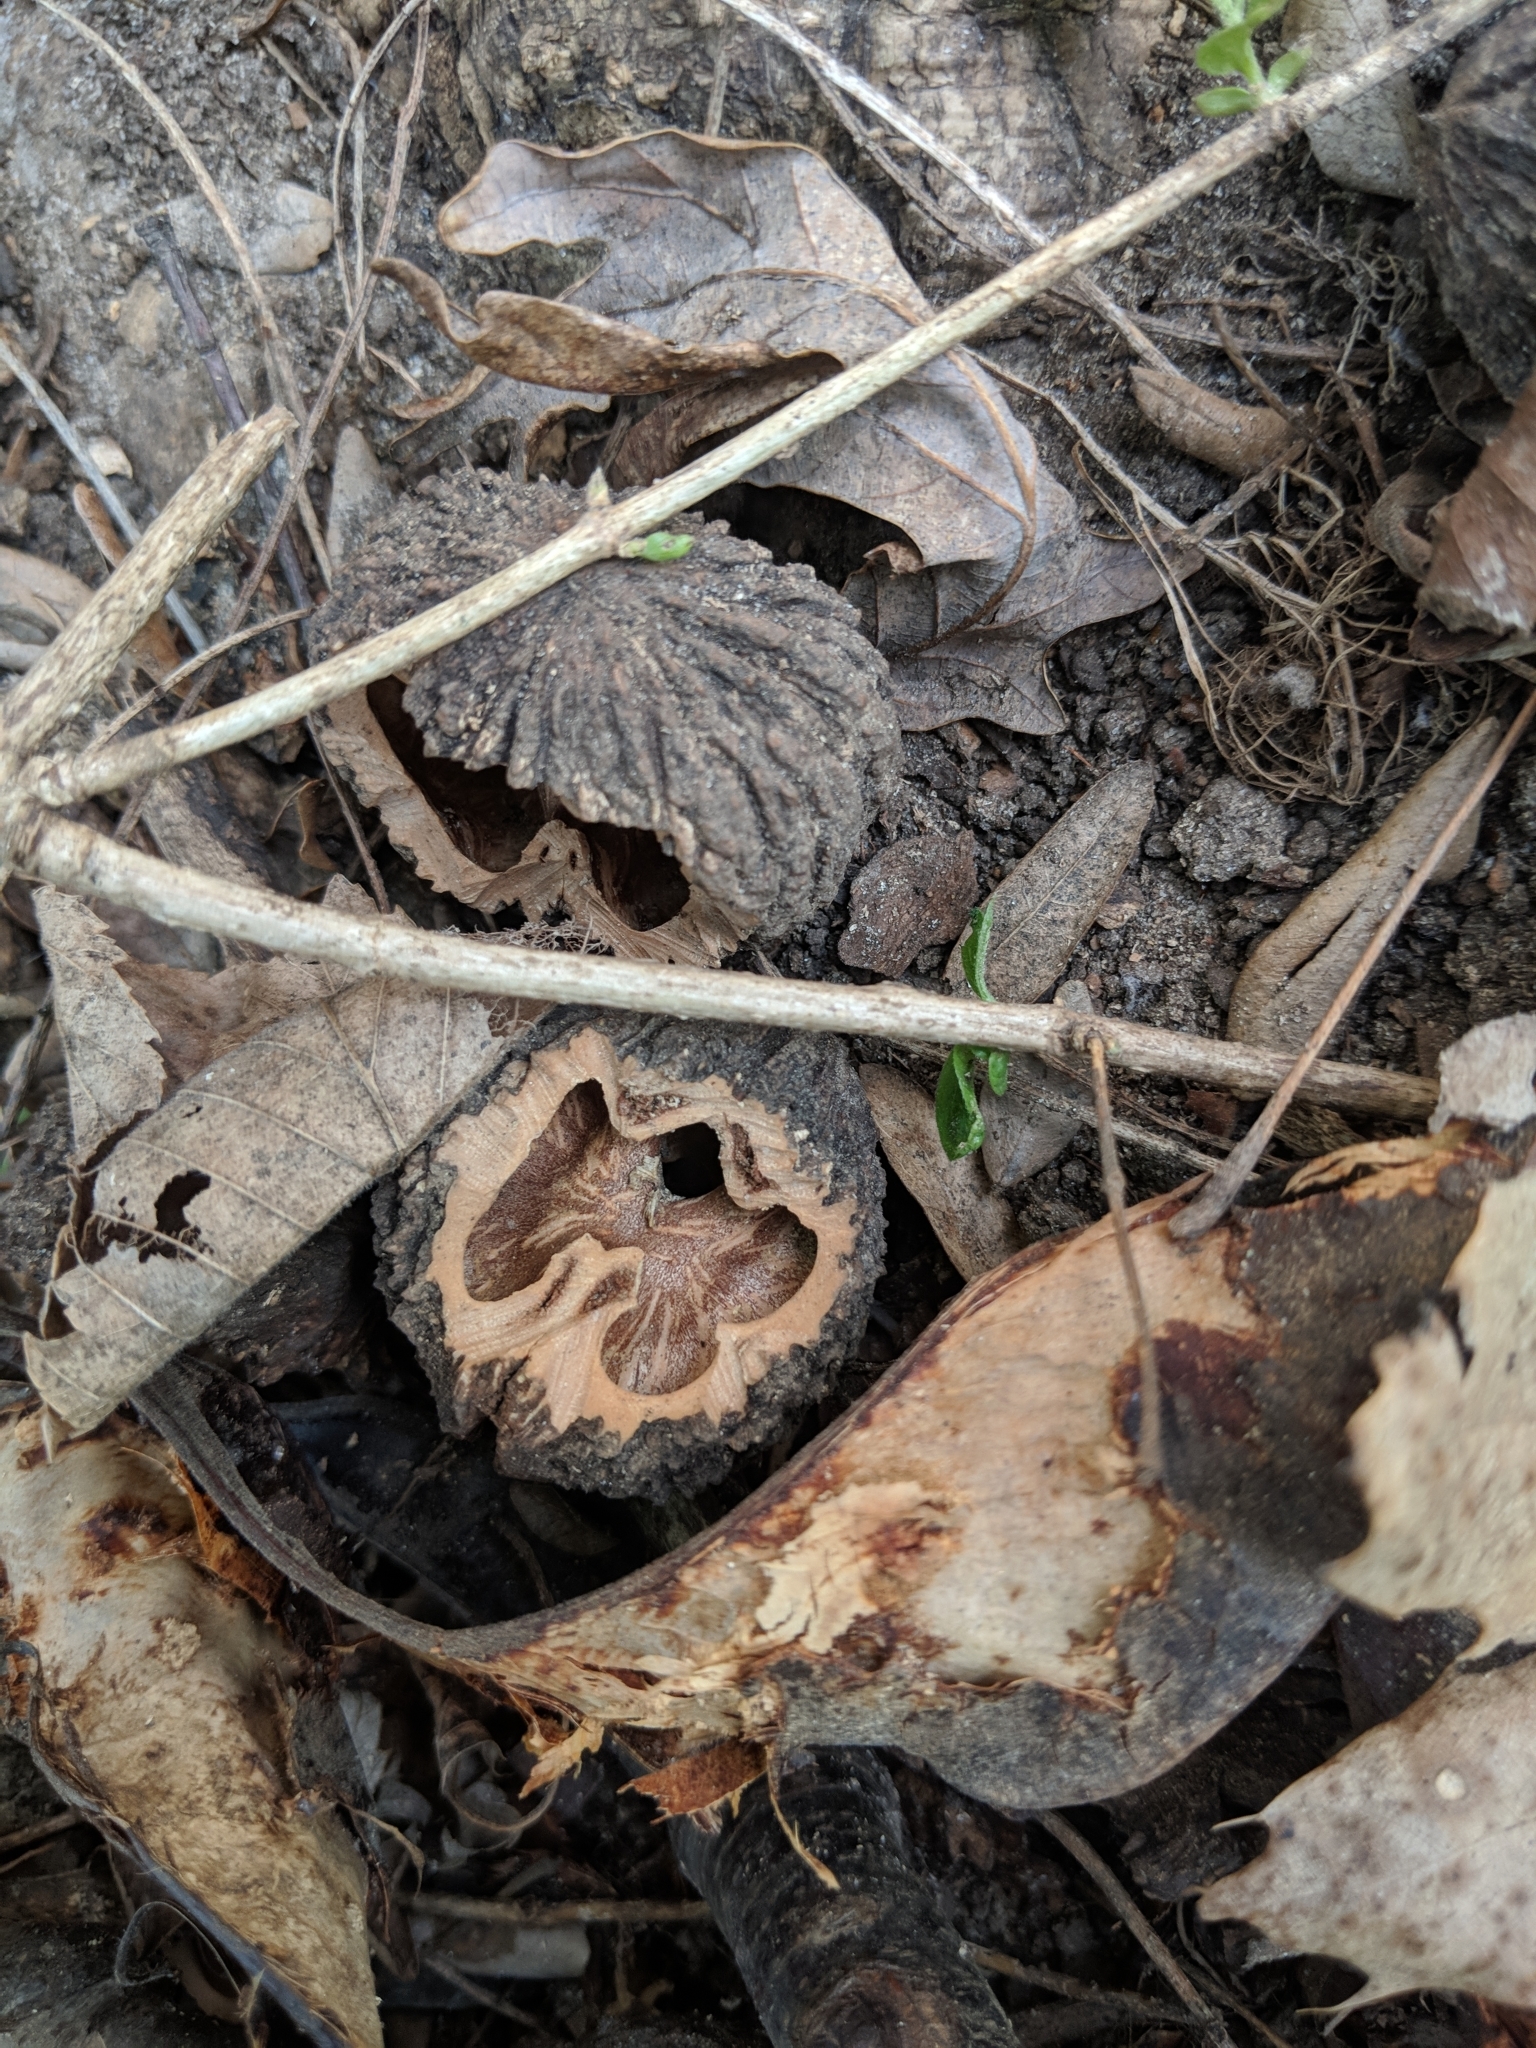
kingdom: Plantae
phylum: Tracheophyta
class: Magnoliopsida
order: Fagales
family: Juglandaceae
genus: Juglans
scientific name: Juglans nigra
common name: Black walnut
